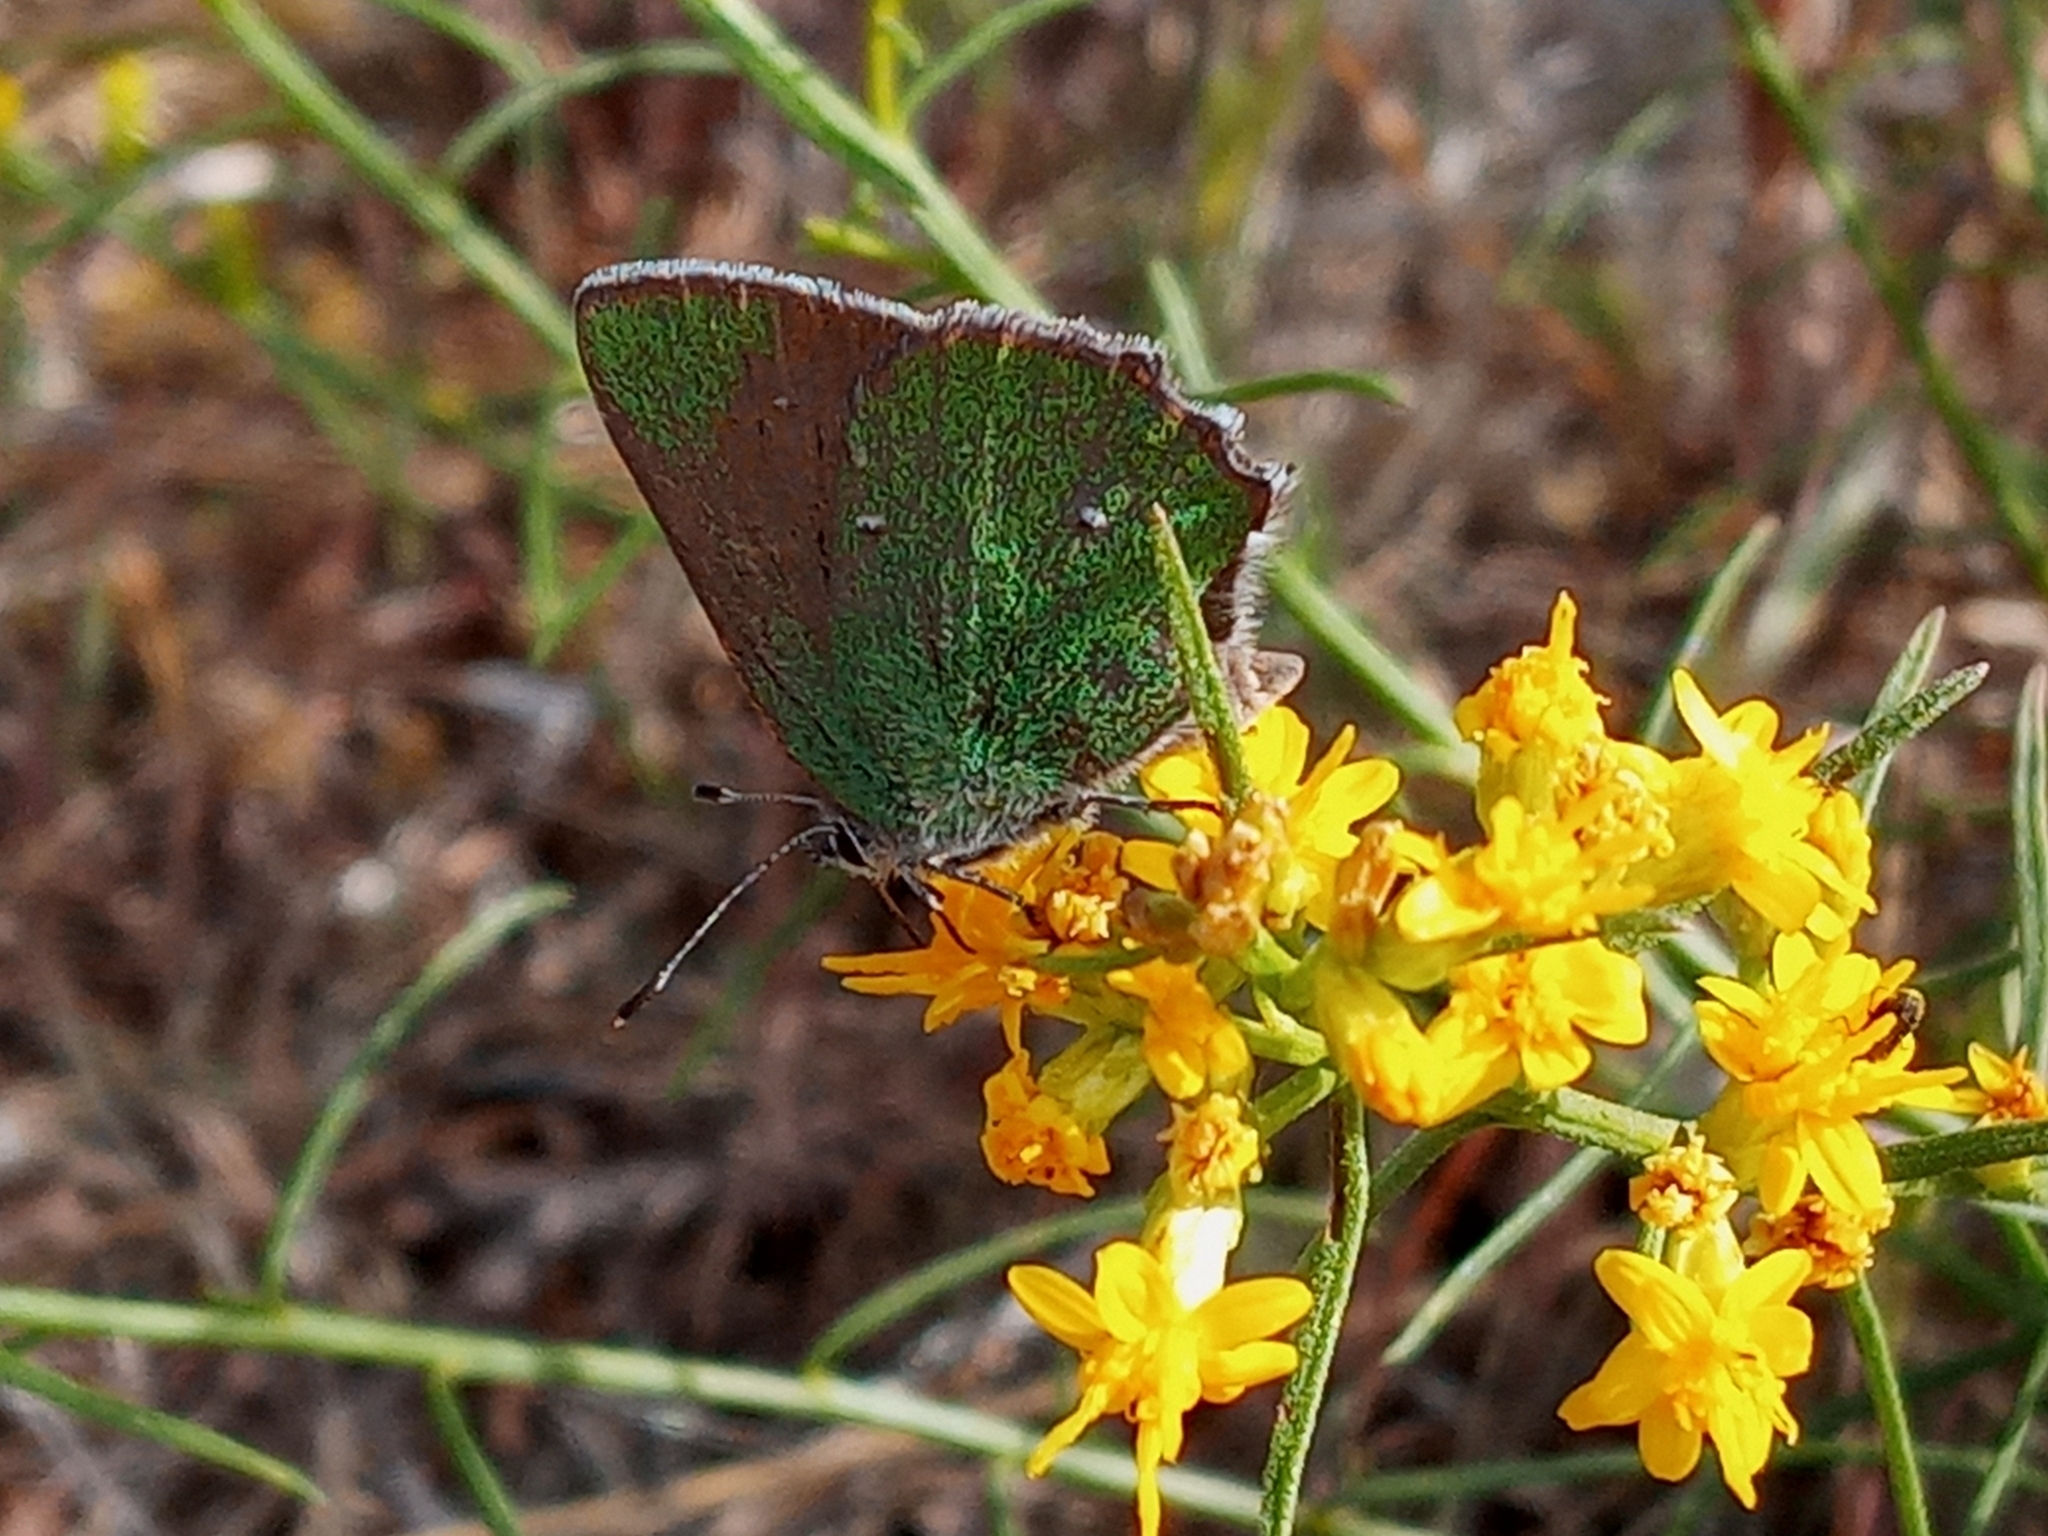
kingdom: Animalia
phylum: Arthropoda
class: Insecta
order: Lepidoptera
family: Lycaenidae
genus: Callophrys
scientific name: Callophrys dumetorum
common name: Bramble hairstreak
